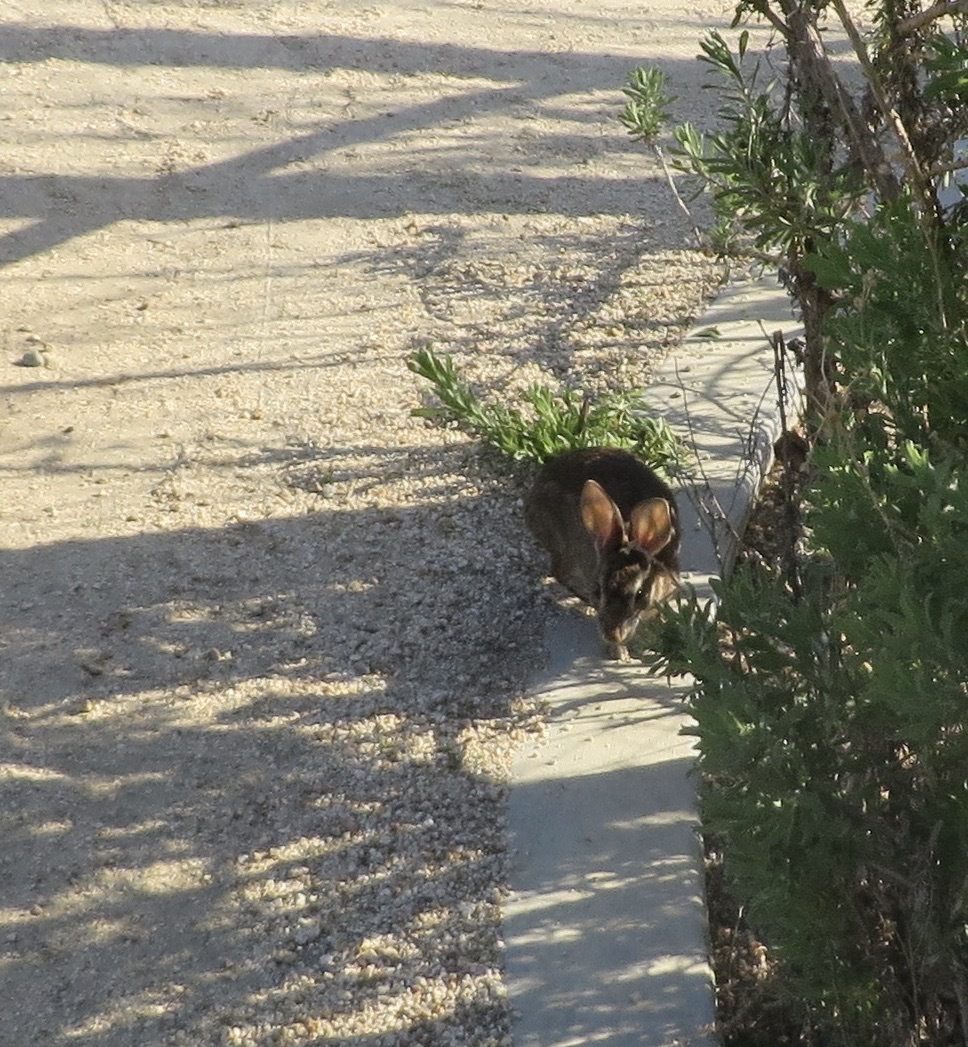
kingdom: Animalia
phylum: Chordata
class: Mammalia
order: Lagomorpha
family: Leporidae
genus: Sylvilagus
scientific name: Sylvilagus audubonii
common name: Desert cottontail
